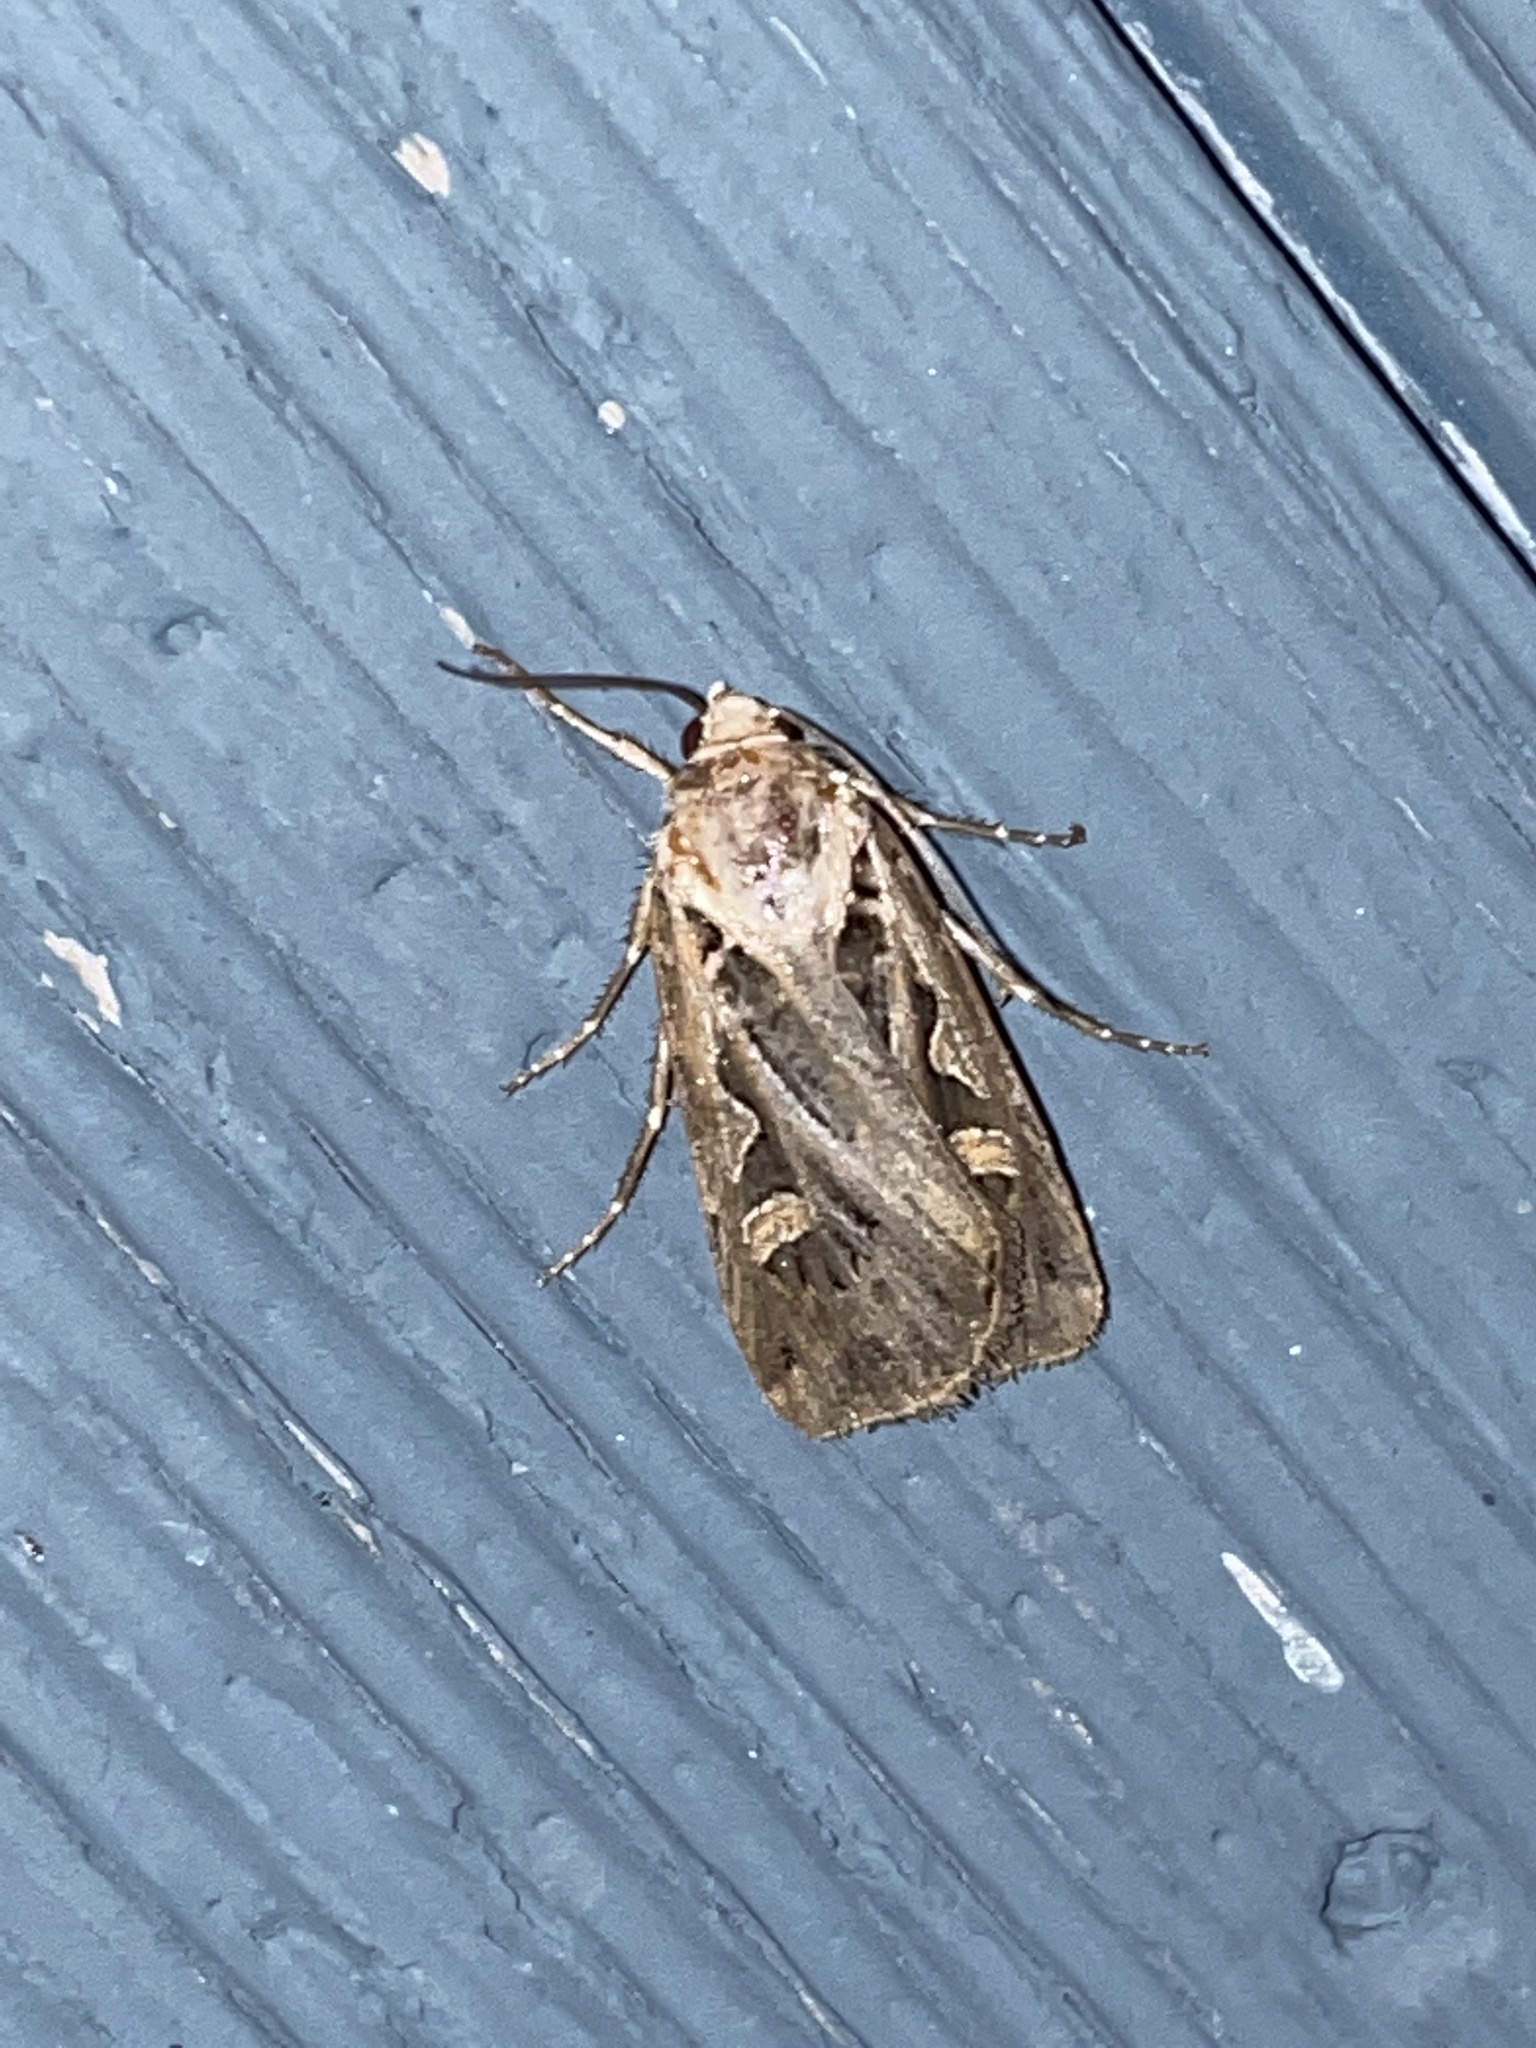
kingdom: Animalia
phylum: Arthropoda
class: Insecta
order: Lepidoptera
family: Noctuidae
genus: Feltia
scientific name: Feltia jaculifera
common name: Dingy cutworm moth
